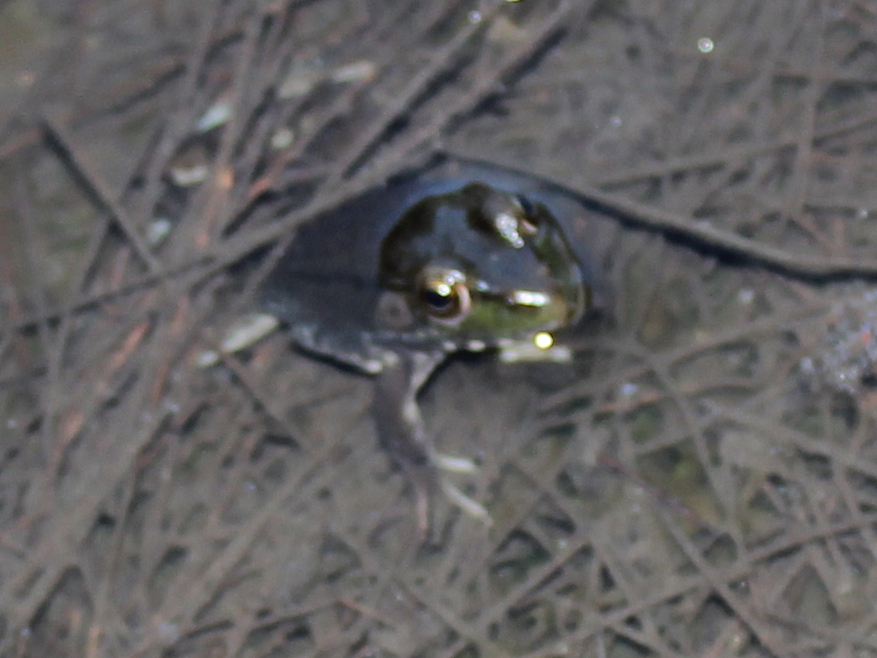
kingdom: Animalia
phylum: Chordata
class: Amphibia
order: Anura
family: Ranidae
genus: Lithobates
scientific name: Lithobates clamitans
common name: Green frog
